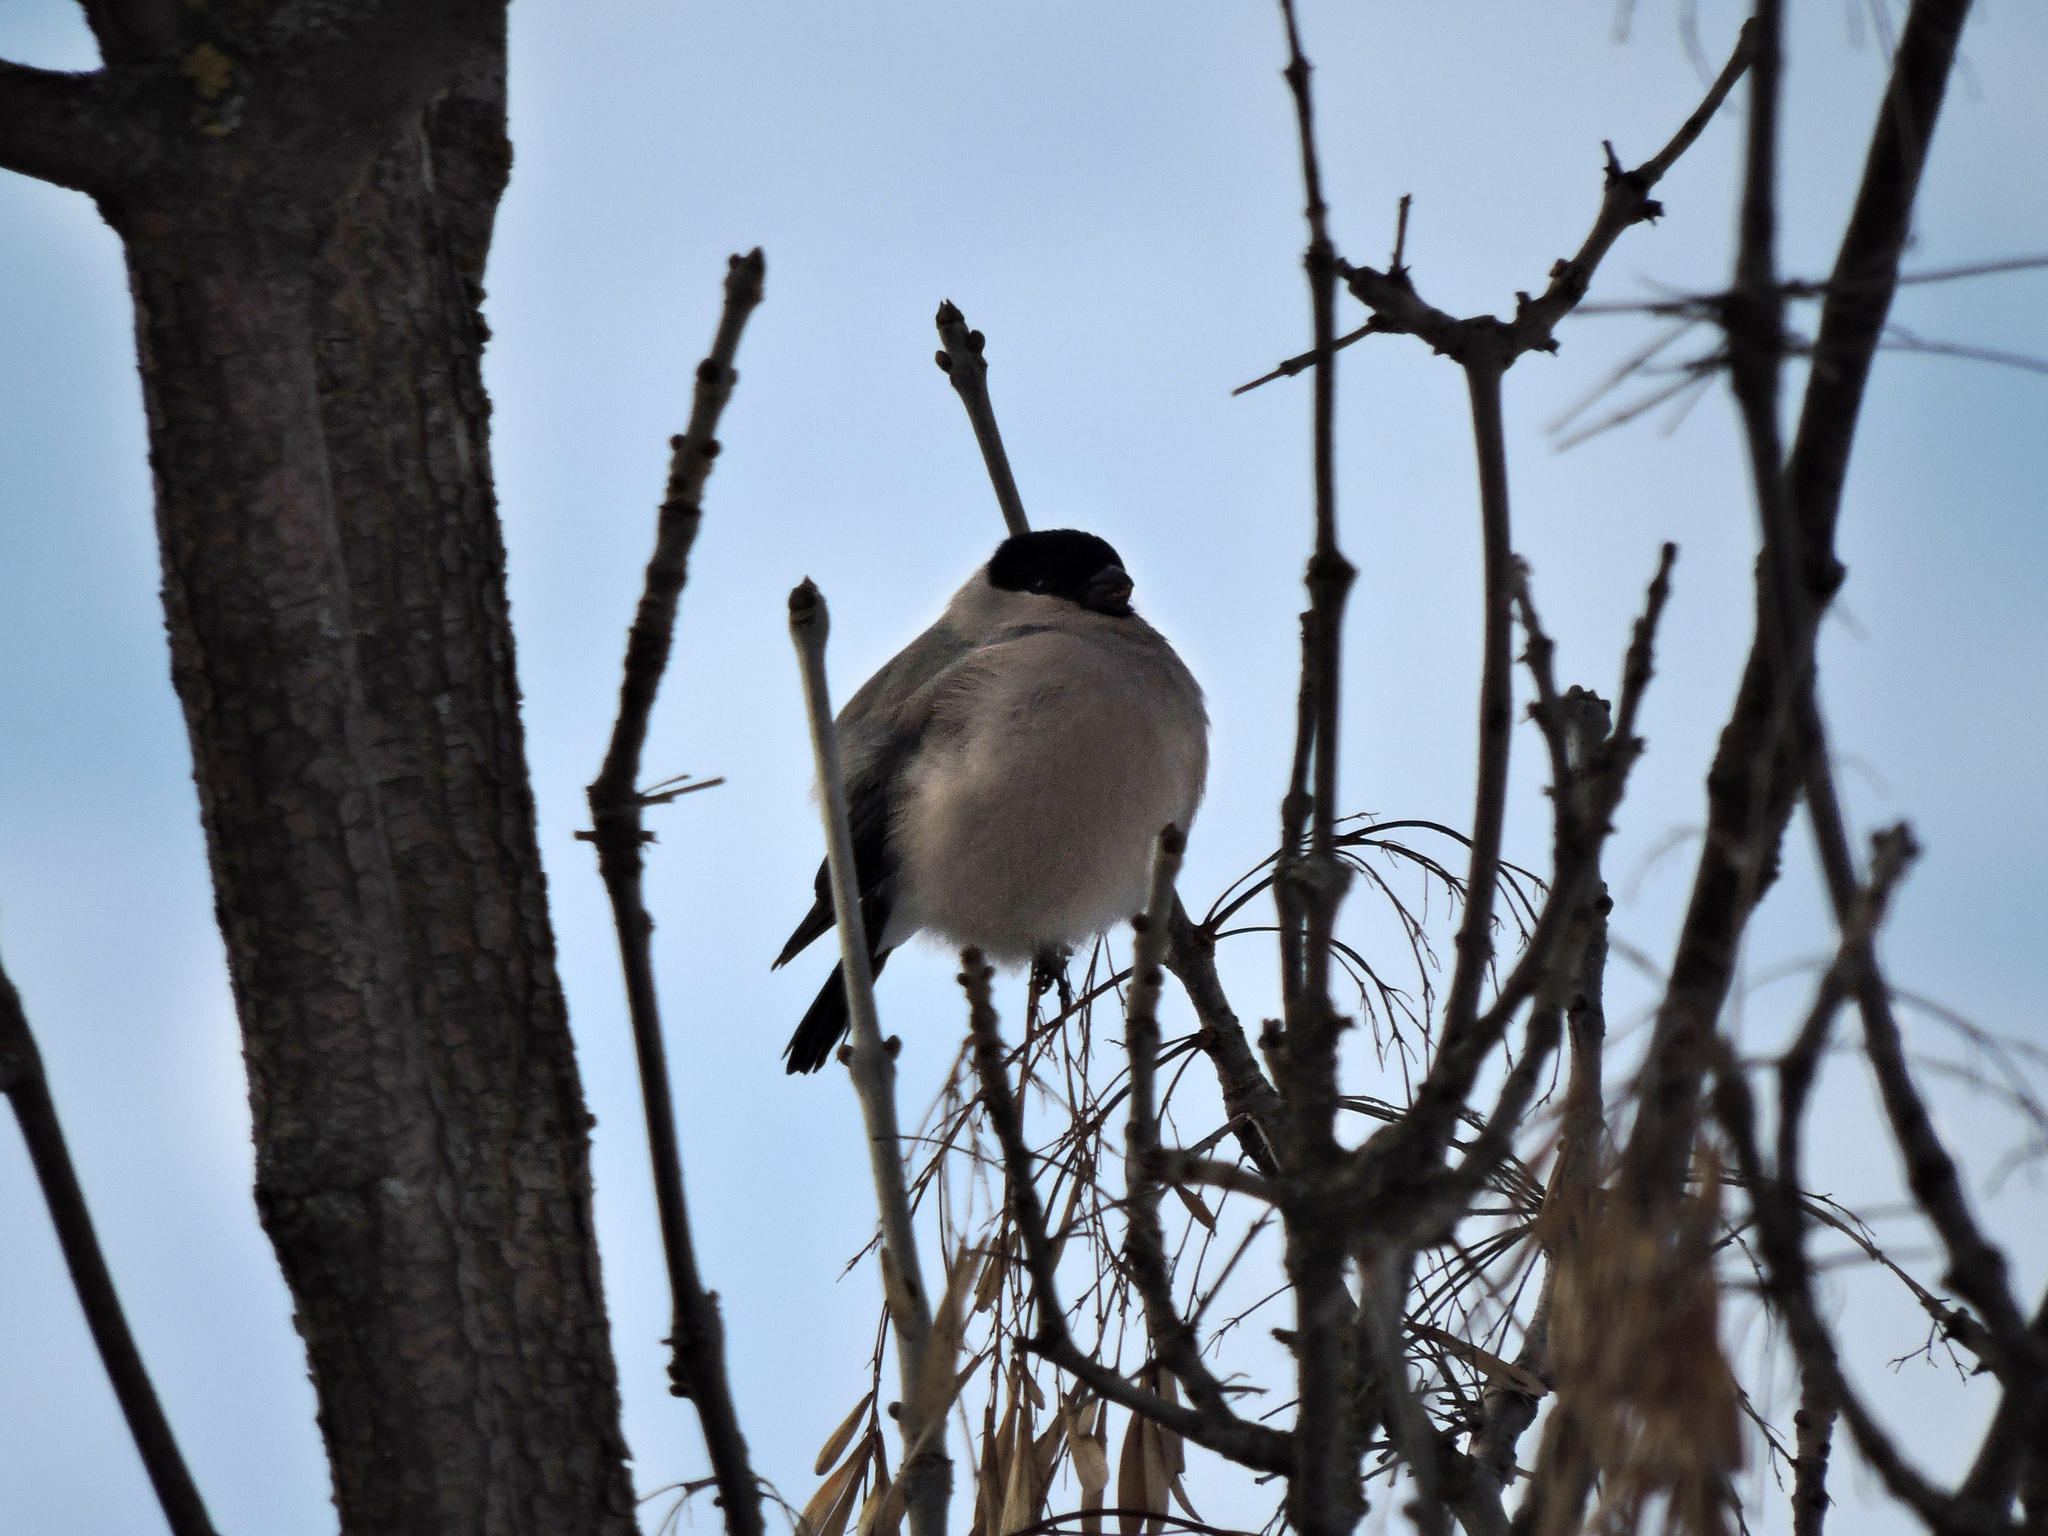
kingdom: Animalia
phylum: Chordata
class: Aves
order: Passeriformes
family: Fringillidae
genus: Pyrrhula
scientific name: Pyrrhula pyrrhula
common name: Eurasian bullfinch
